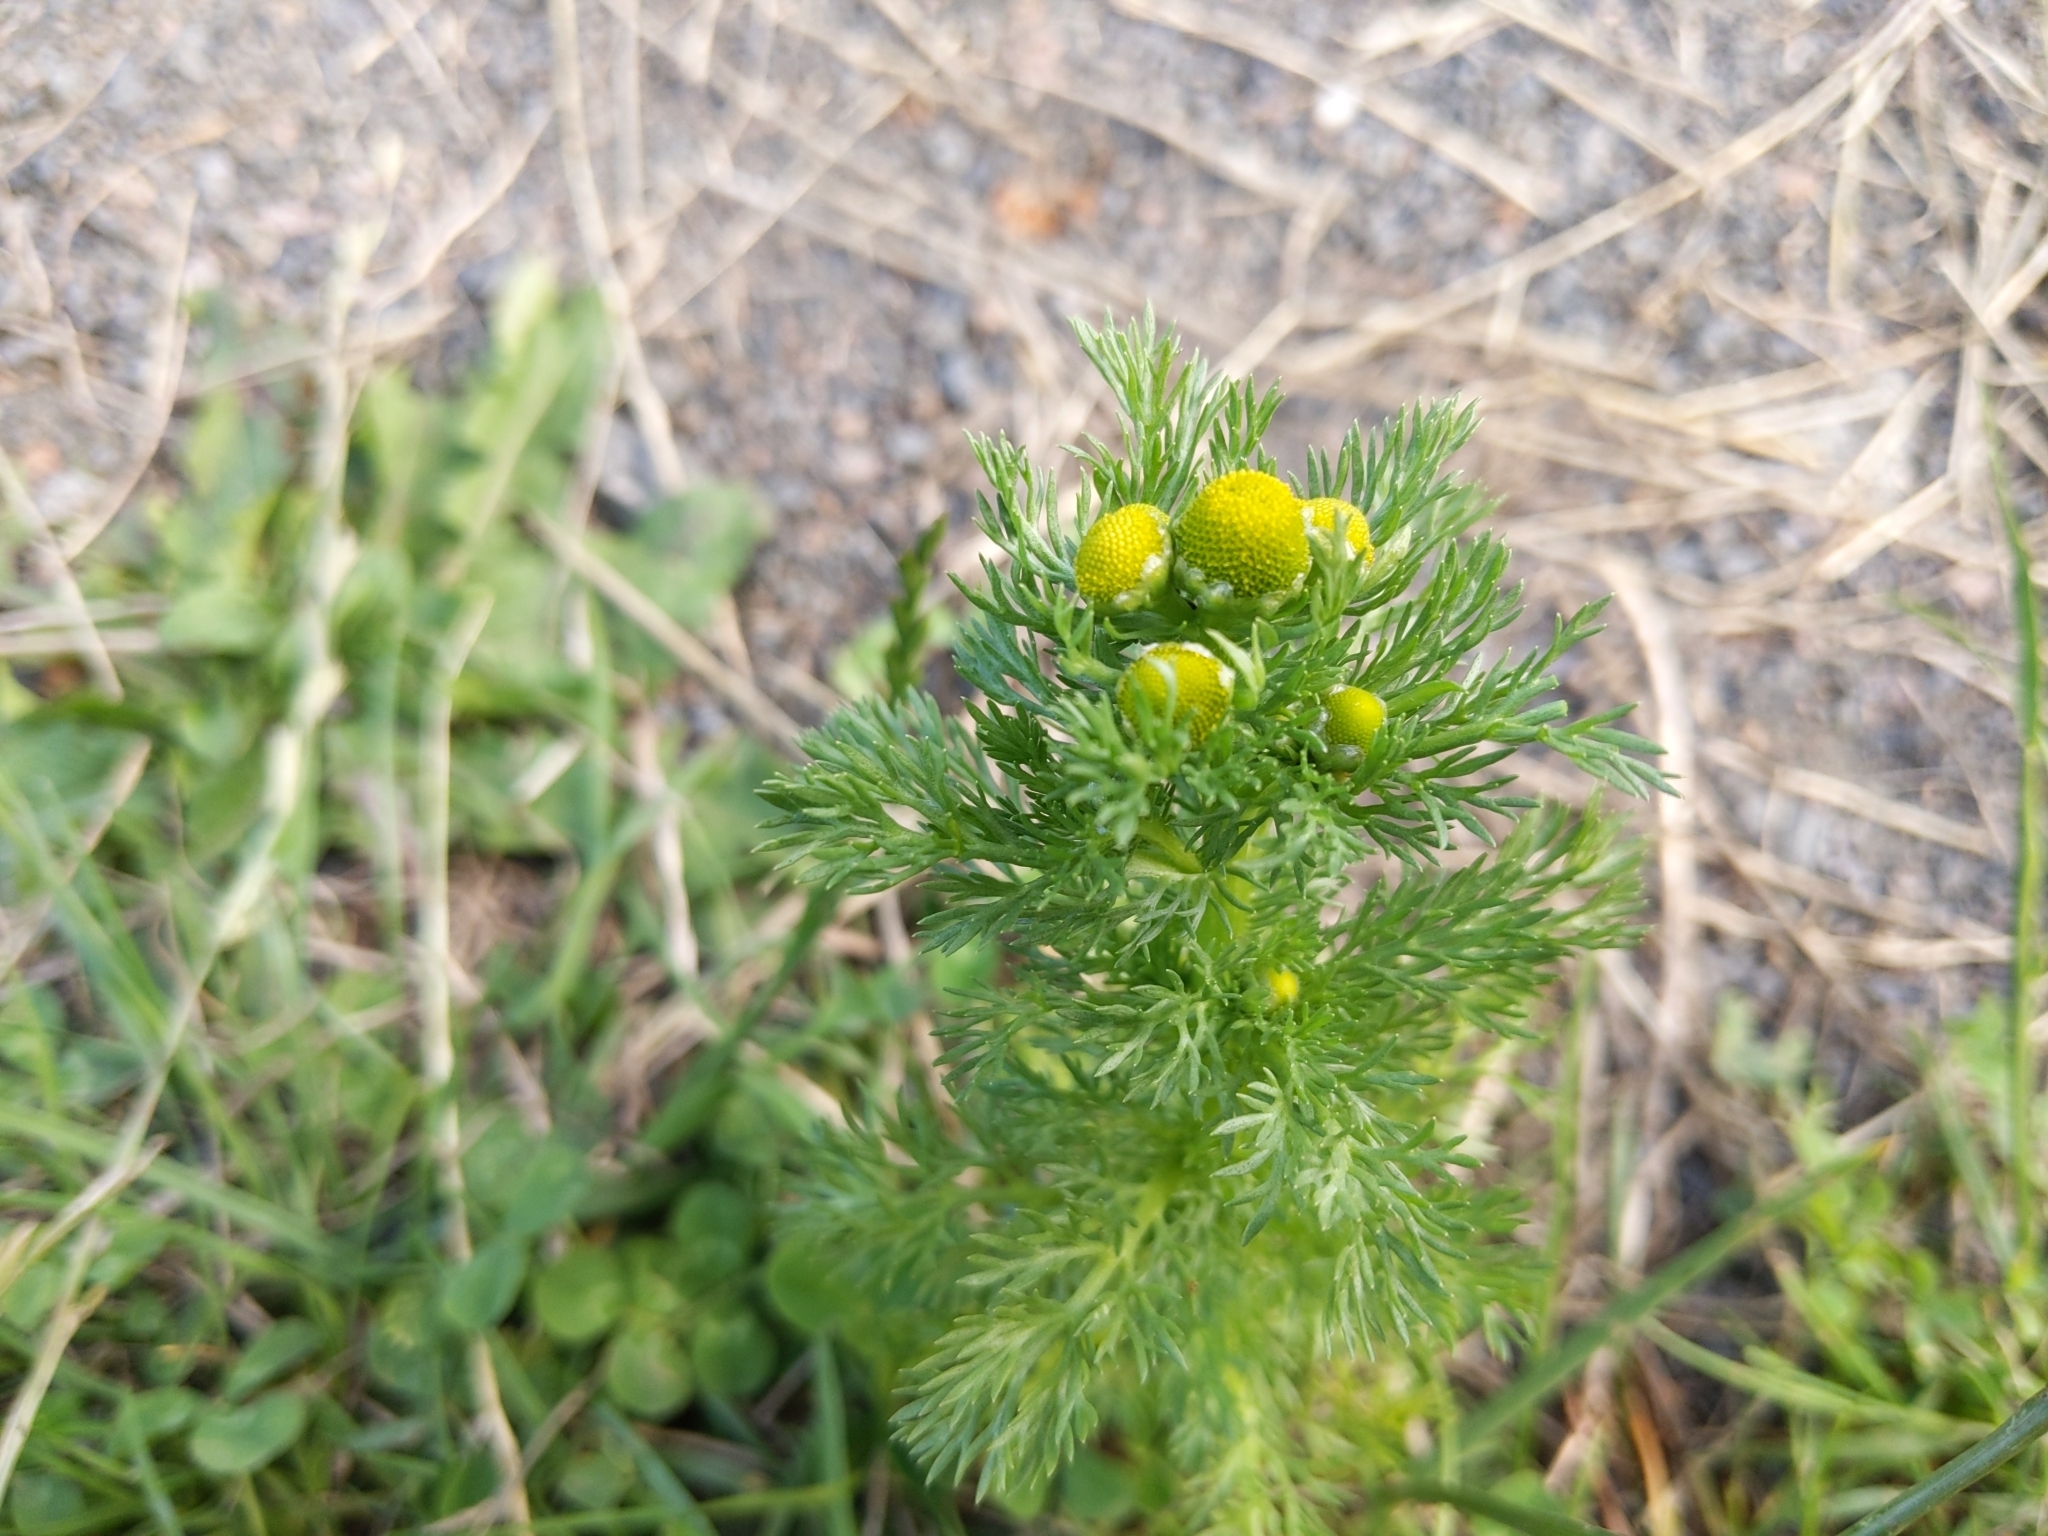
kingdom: Plantae
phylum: Tracheophyta
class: Magnoliopsida
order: Asterales
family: Asteraceae
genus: Matricaria
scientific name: Matricaria discoidea
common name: Disc mayweed
